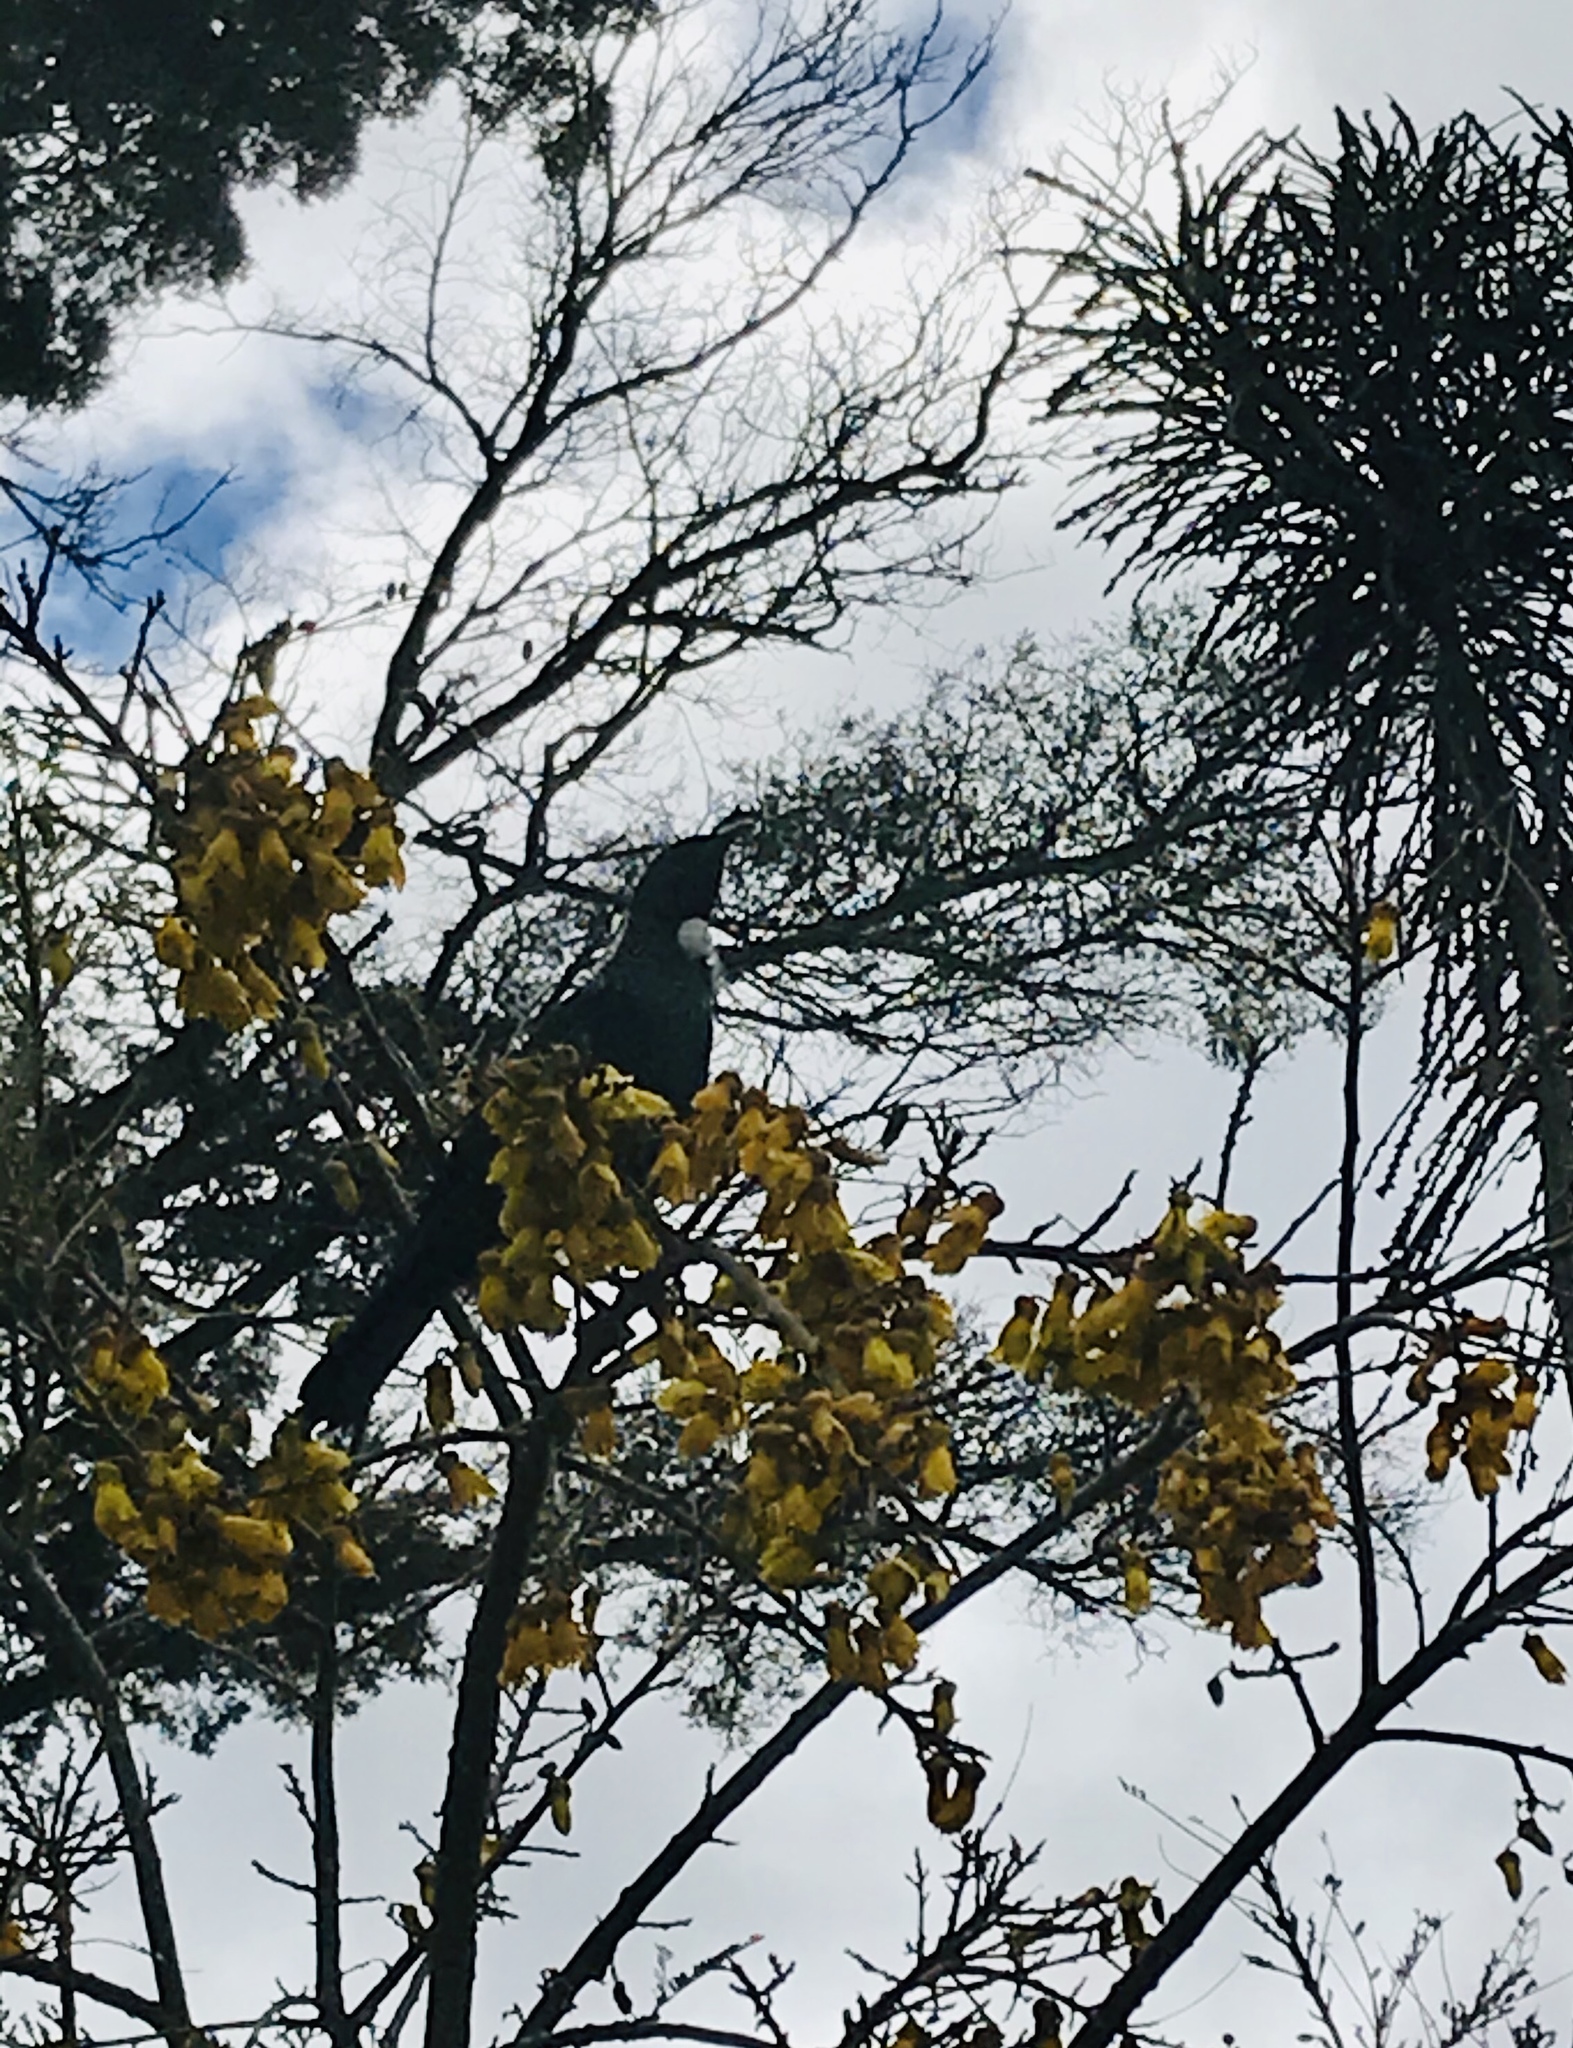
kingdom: Animalia
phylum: Chordata
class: Aves
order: Passeriformes
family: Meliphagidae
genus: Prosthemadera
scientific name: Prosthemadera novaeseelandiae
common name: Tui
